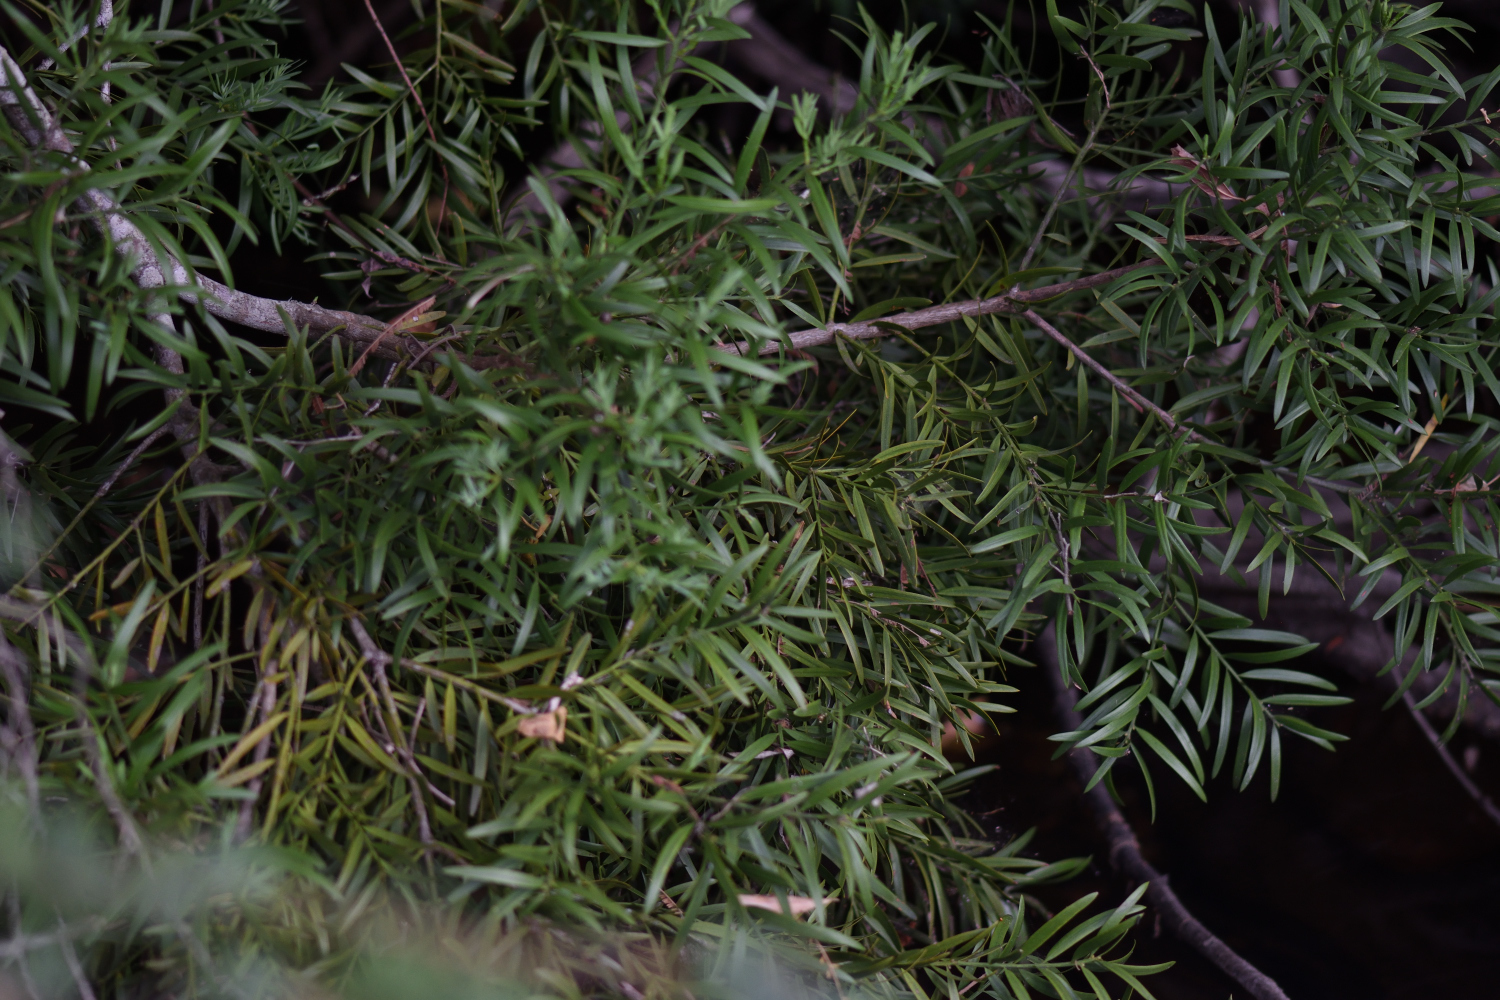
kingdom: Plantae
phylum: Tracheophyta
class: Pinopsida
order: Pinales
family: Podocarpaceae
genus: Afrocarpus
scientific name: Afrocarpus falcatus
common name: Bastard yellowwood
